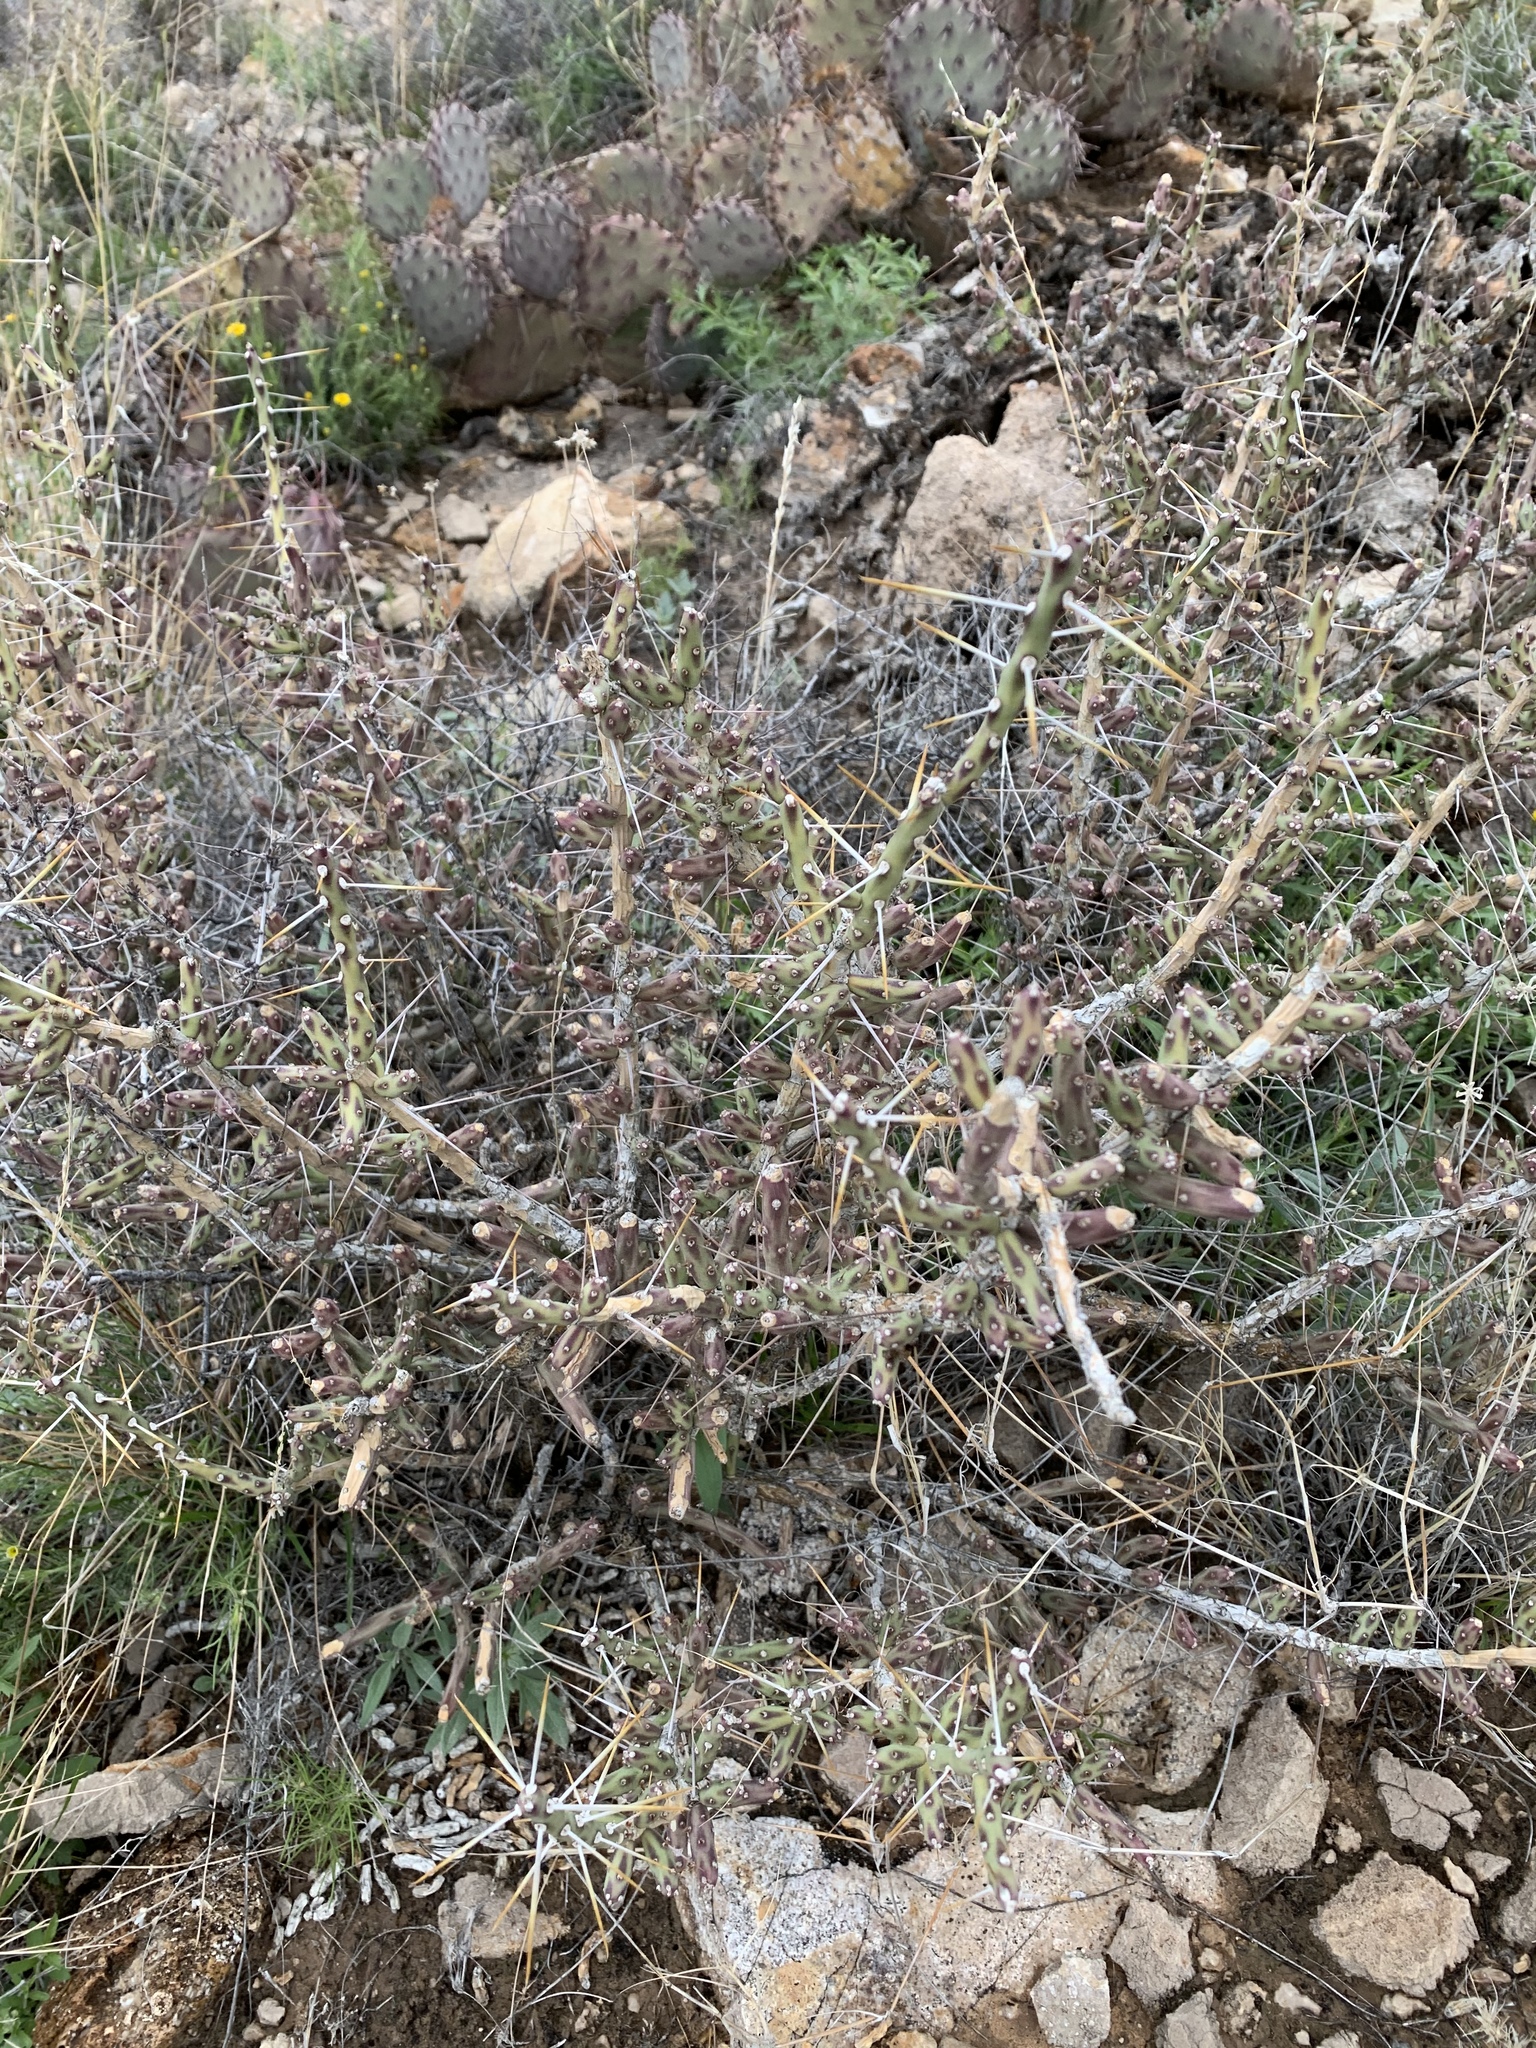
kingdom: Plantae
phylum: Tracheophyta
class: Magnoliopsida
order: Caryophyllales
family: Cactaceae
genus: Cylindropuntia
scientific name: Cylindropuntia leptocaulis
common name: Christmas cactus
